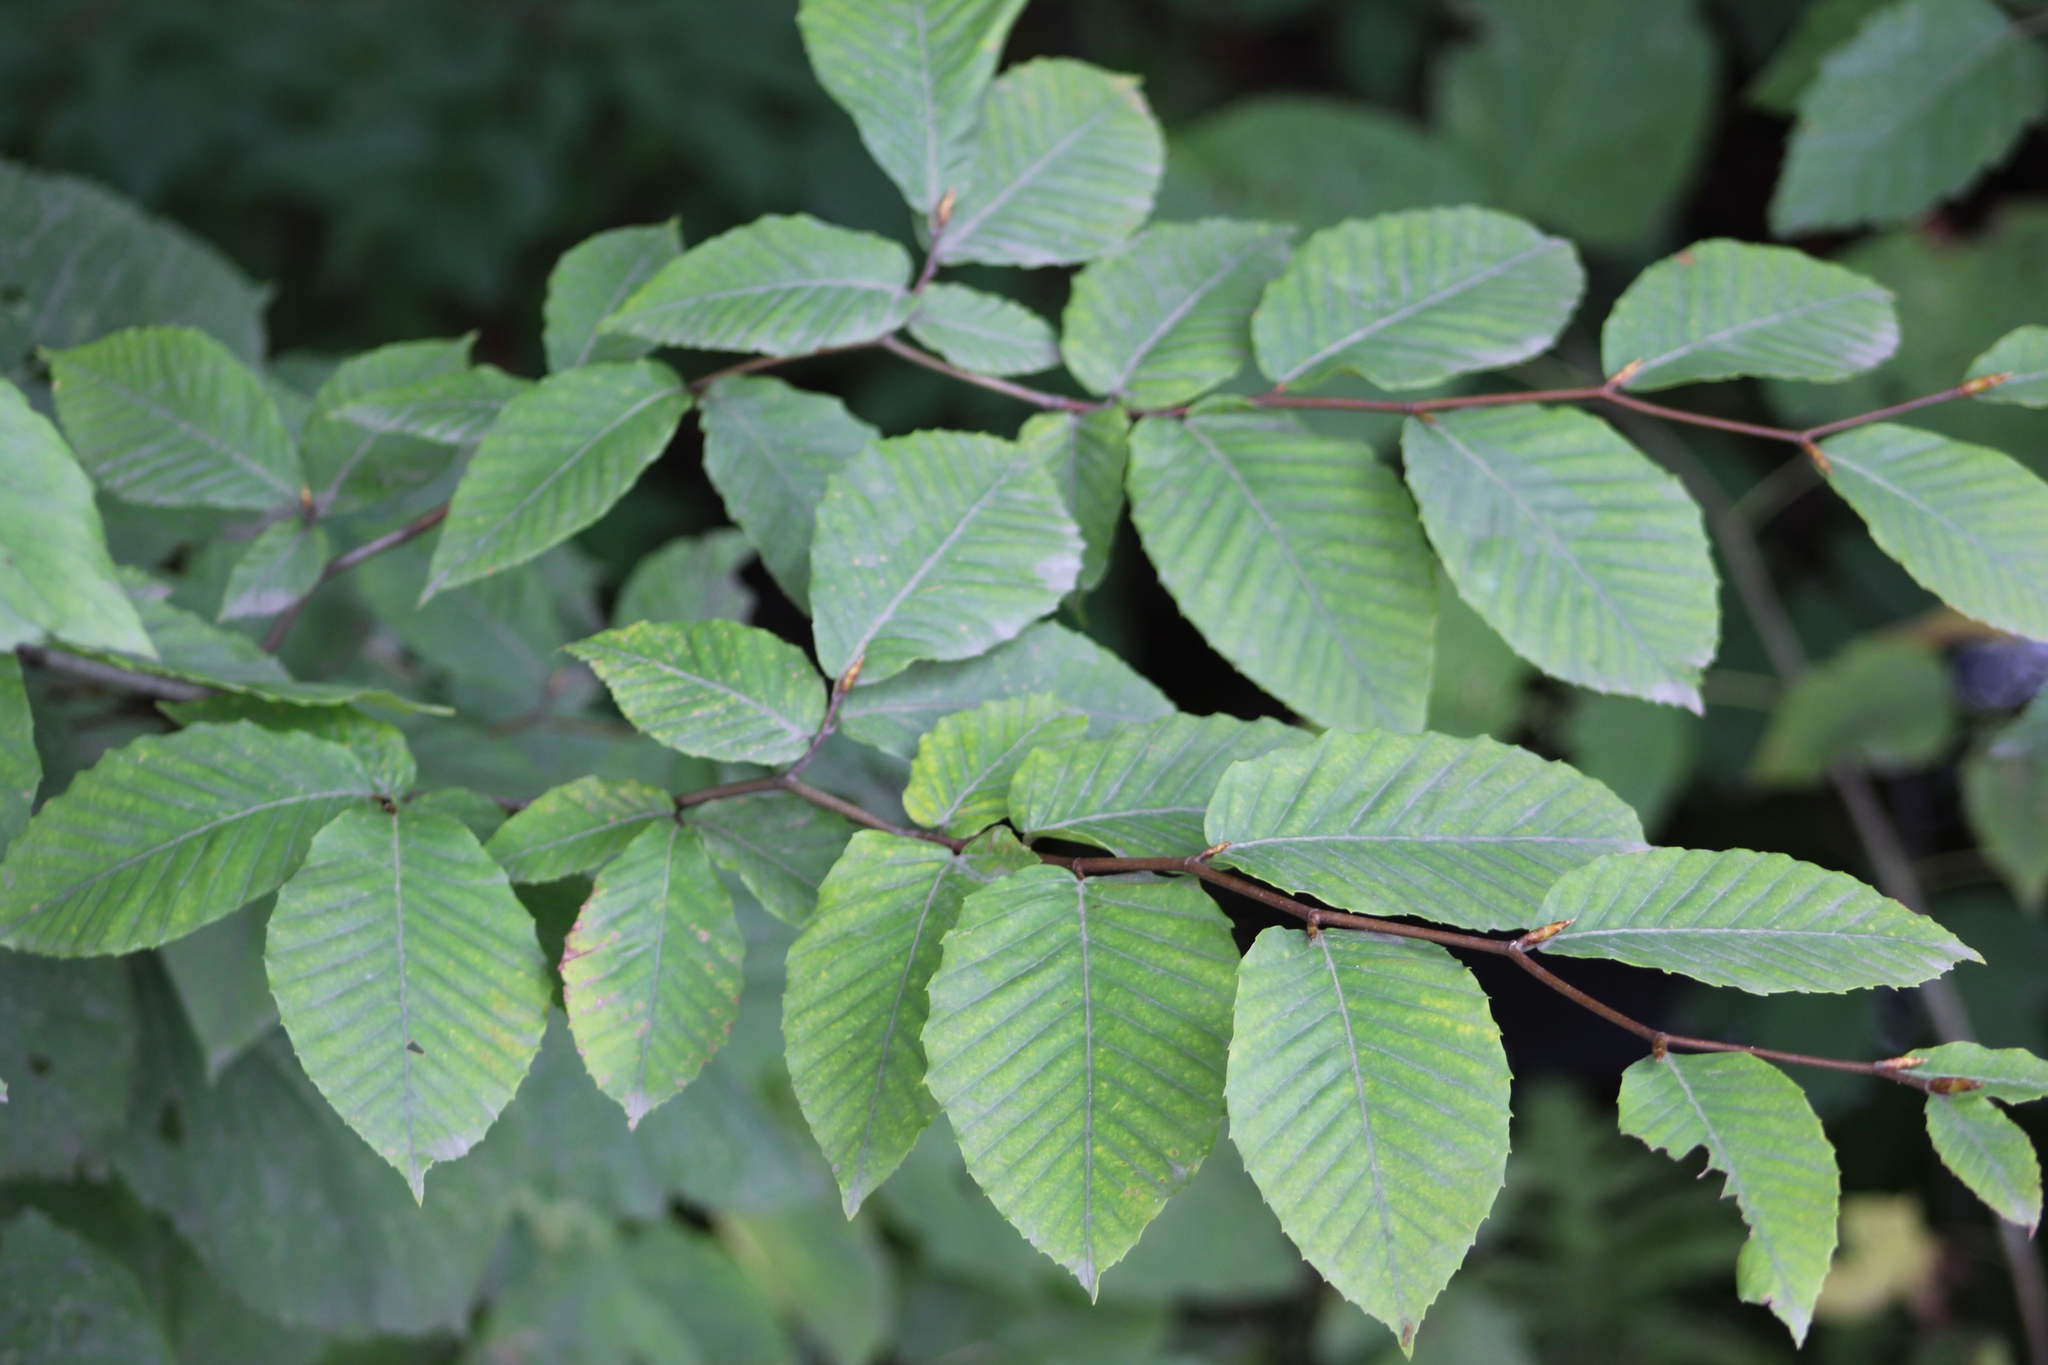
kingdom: Plantae
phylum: Tracheophyta
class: Magnoliopsida
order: Fagales
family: Fagaceae
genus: Fagus
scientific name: Fagus grandifolia
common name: American beech
